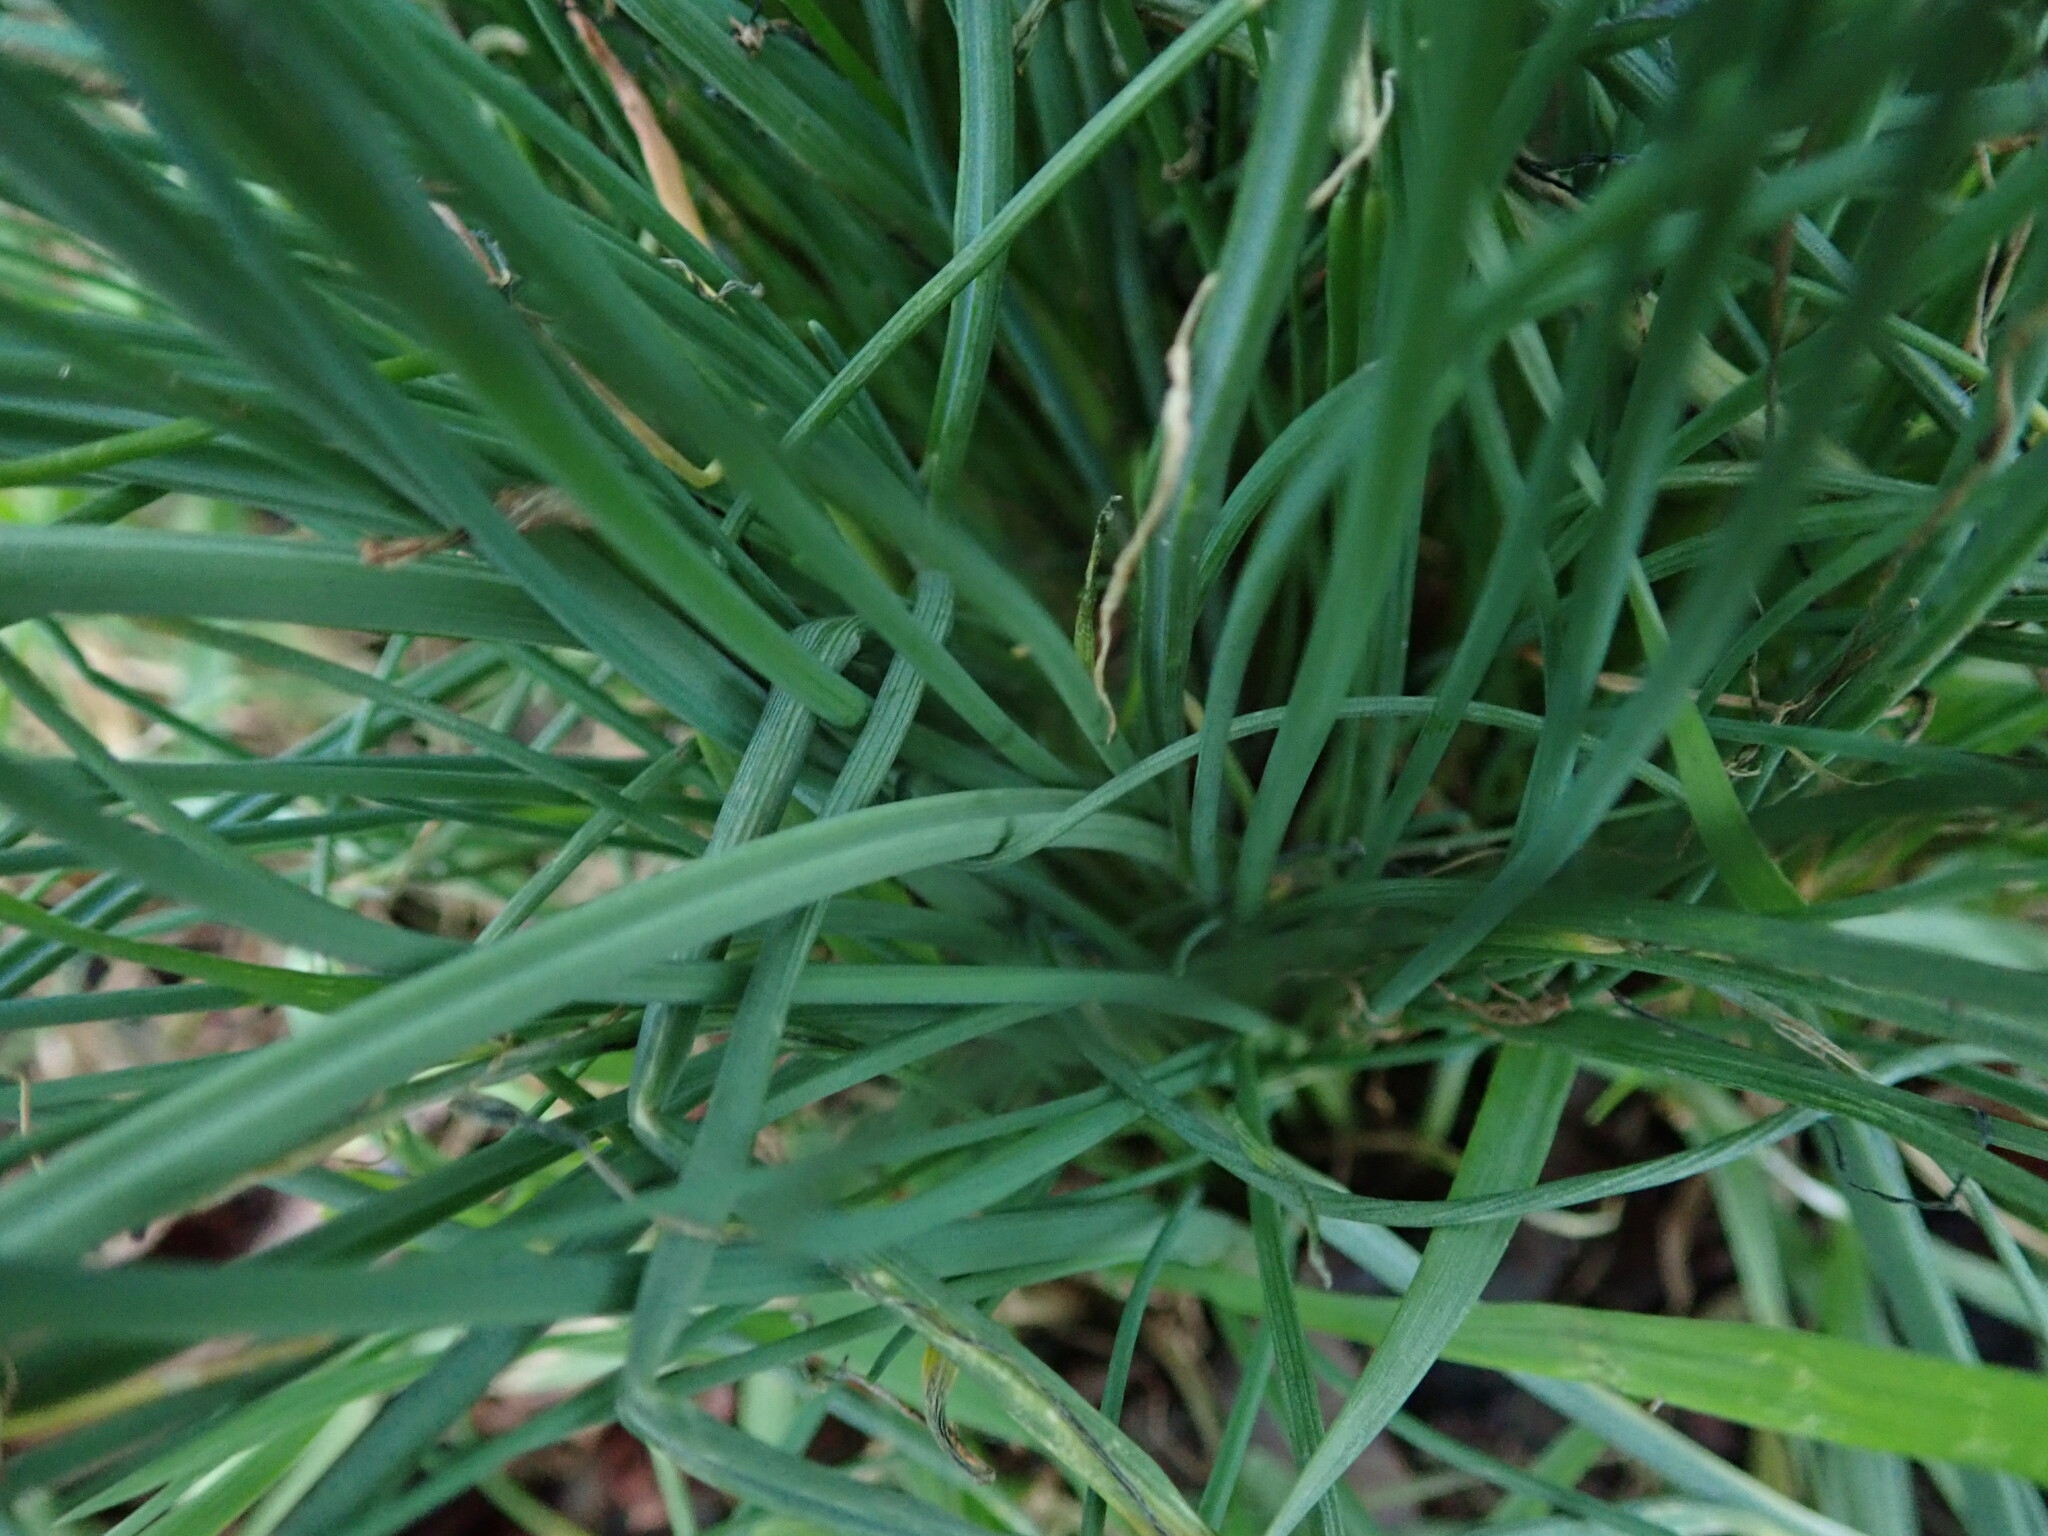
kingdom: Plantae
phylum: Tracheophyta
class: Liliopsida
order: Asparagales
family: Amaryllidaceae
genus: Allium
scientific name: Allium vineale
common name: Crow garlic
